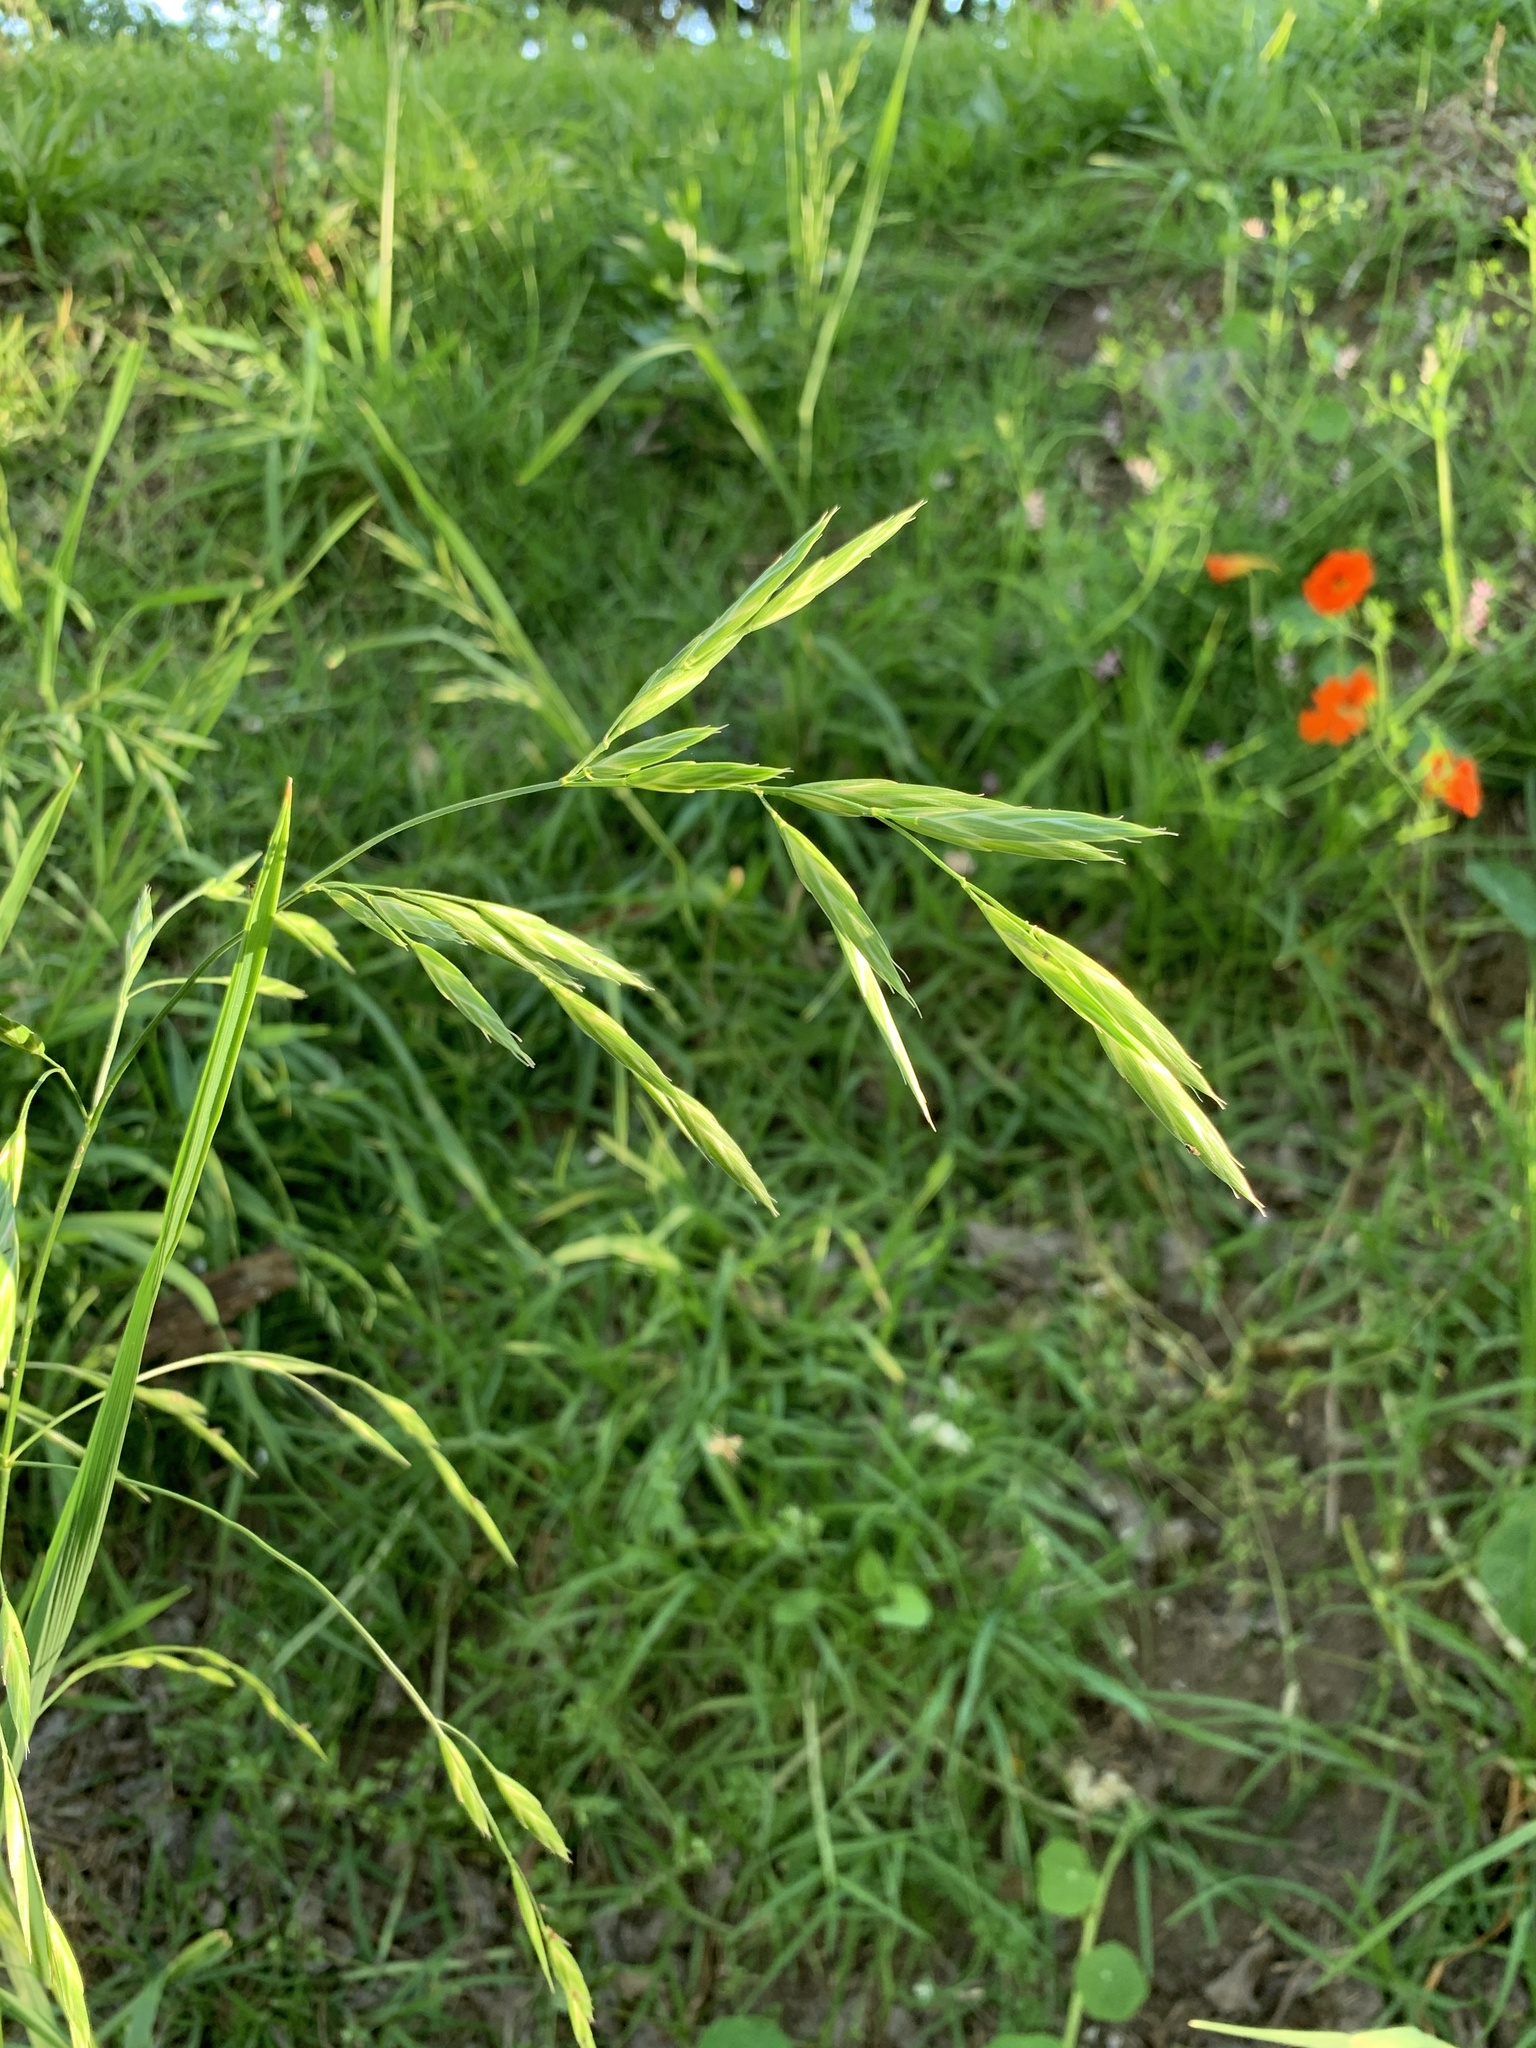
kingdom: Plantae
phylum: Tracheophyta
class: Liliopsida
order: Poales
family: Poaceae
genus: Bromus
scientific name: Bromus catharticus
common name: Rescuegrass
